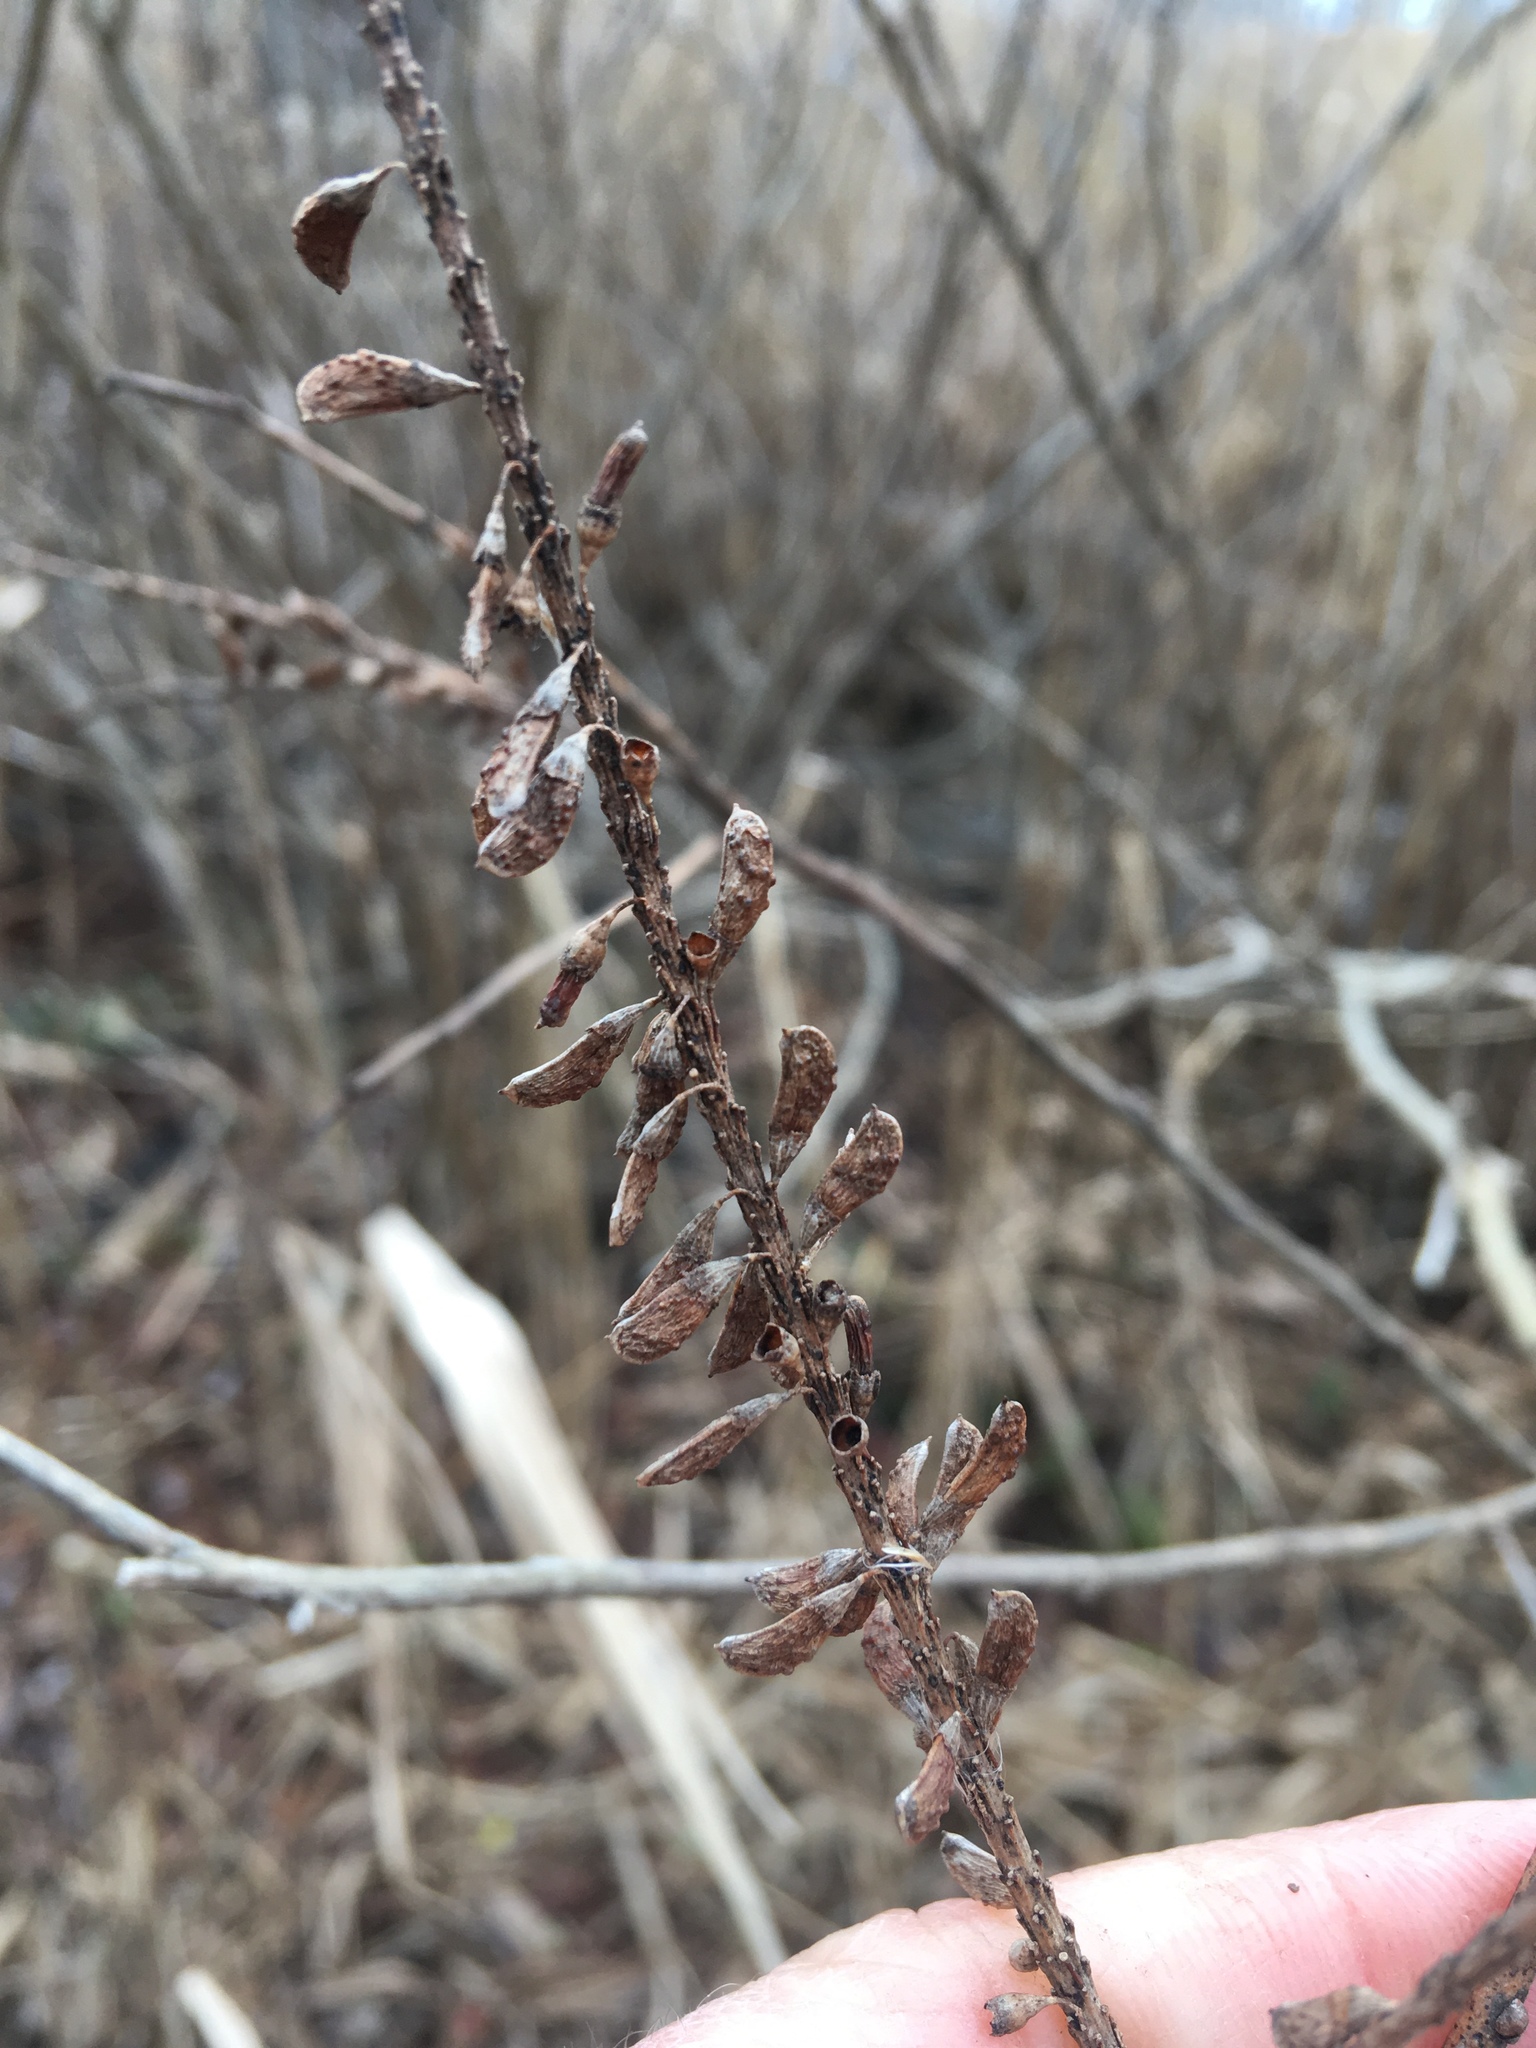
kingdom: Plantae
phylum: Tracheophyta
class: Magnoliopsida
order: Fabales
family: Fabaceae
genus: Amorpha
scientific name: Amorpha fruticosa
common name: False indigo
